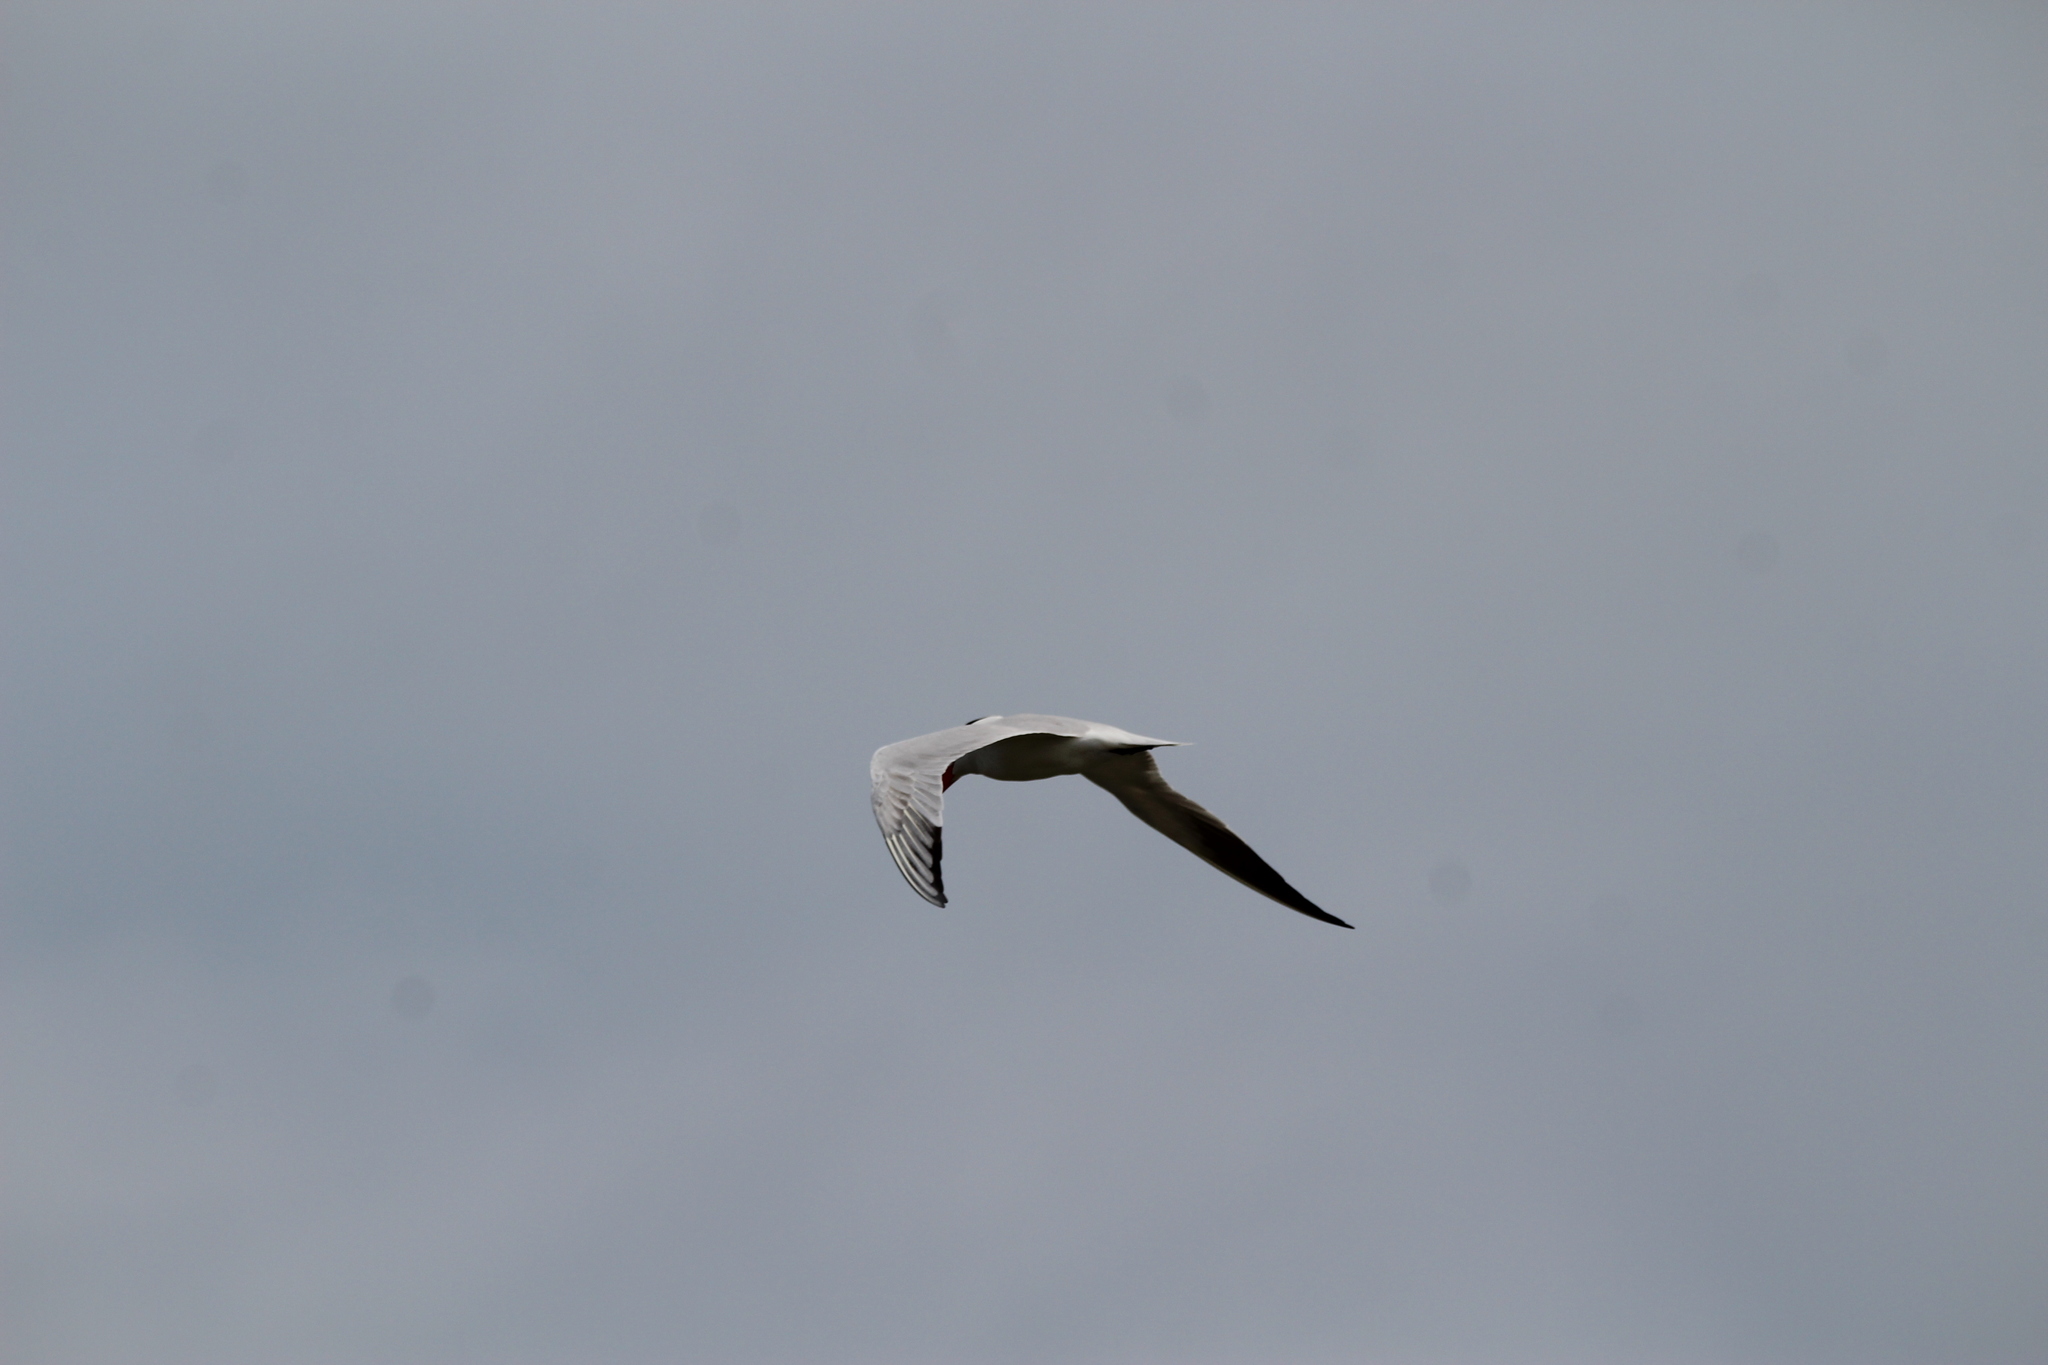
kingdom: Animalia
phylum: Chordata
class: Aves
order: Charadriiformes
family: Laridae
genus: Hydroprogne
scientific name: Hydroprogne caspia
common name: Caspian tern
